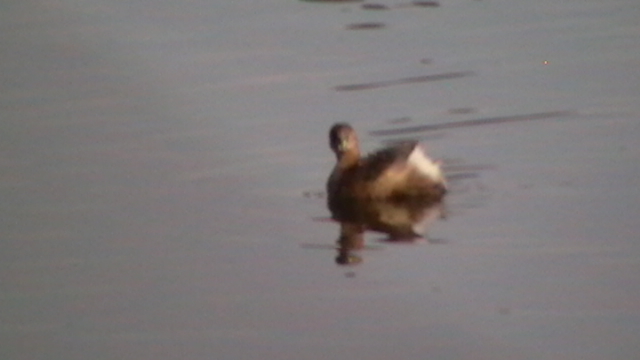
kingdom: Animalia
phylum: Chordata
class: Aves
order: Podicipediformes
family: Podicipedidae
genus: Tachybaptus
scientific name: Tachybaptus ruficollis
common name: Little grebe
